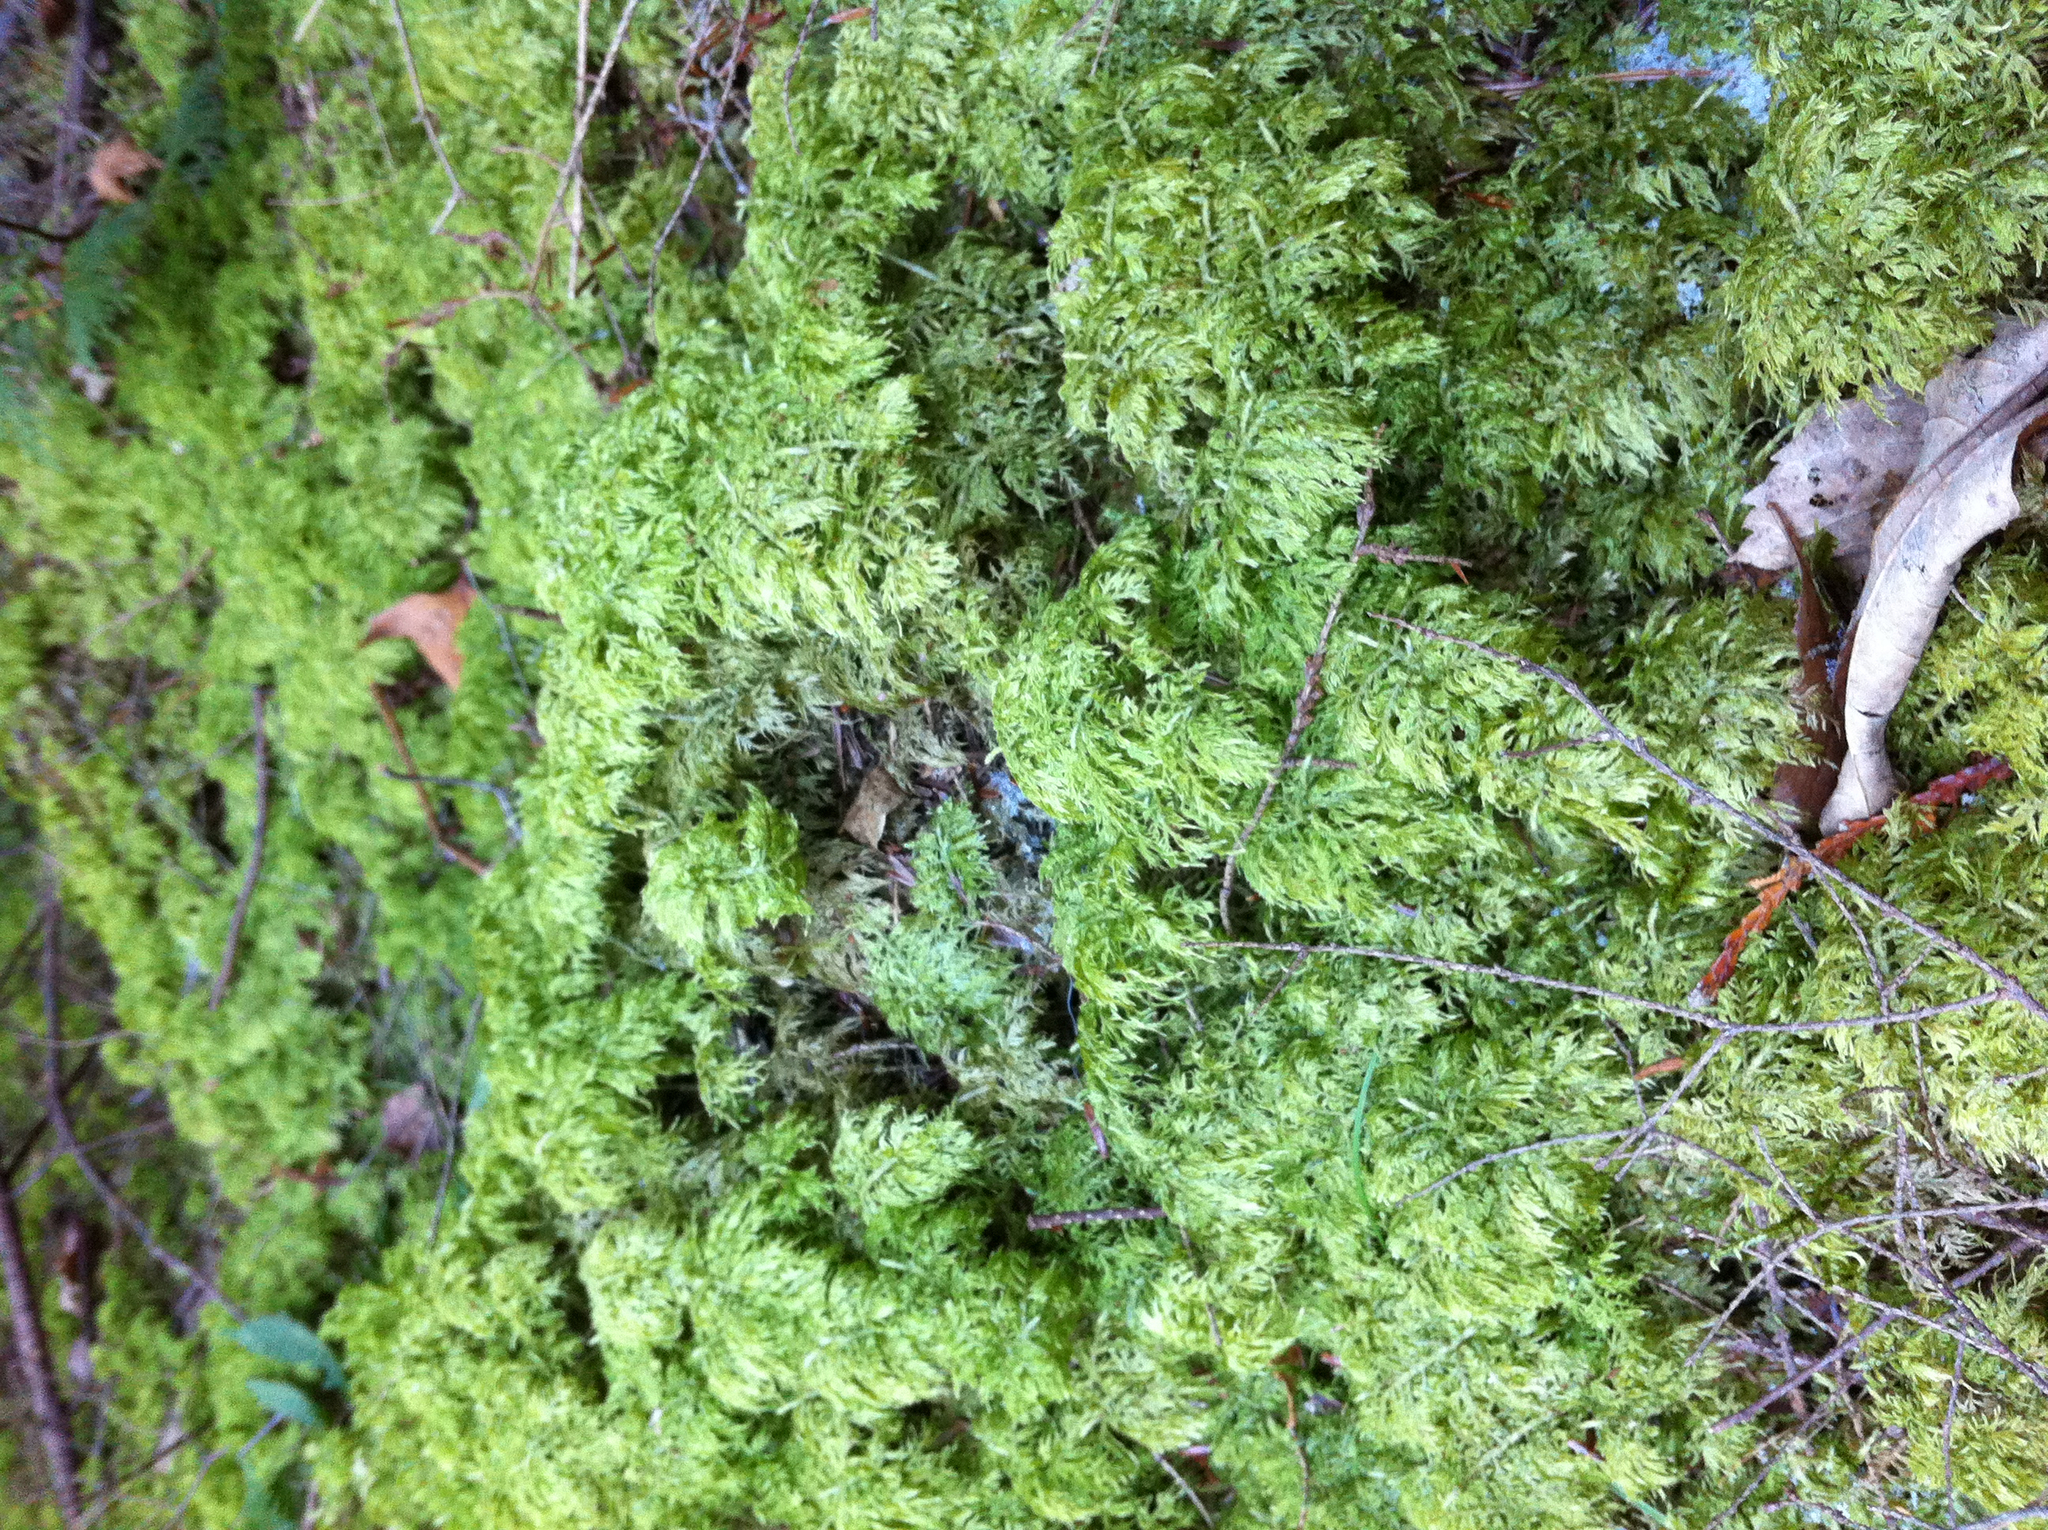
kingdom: Plantae
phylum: Bryophyta
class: Bryopsida
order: Hypnales
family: Hylocomiaceae
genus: Hylocomium
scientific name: Hylocomium splendens
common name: Stairstep moss
